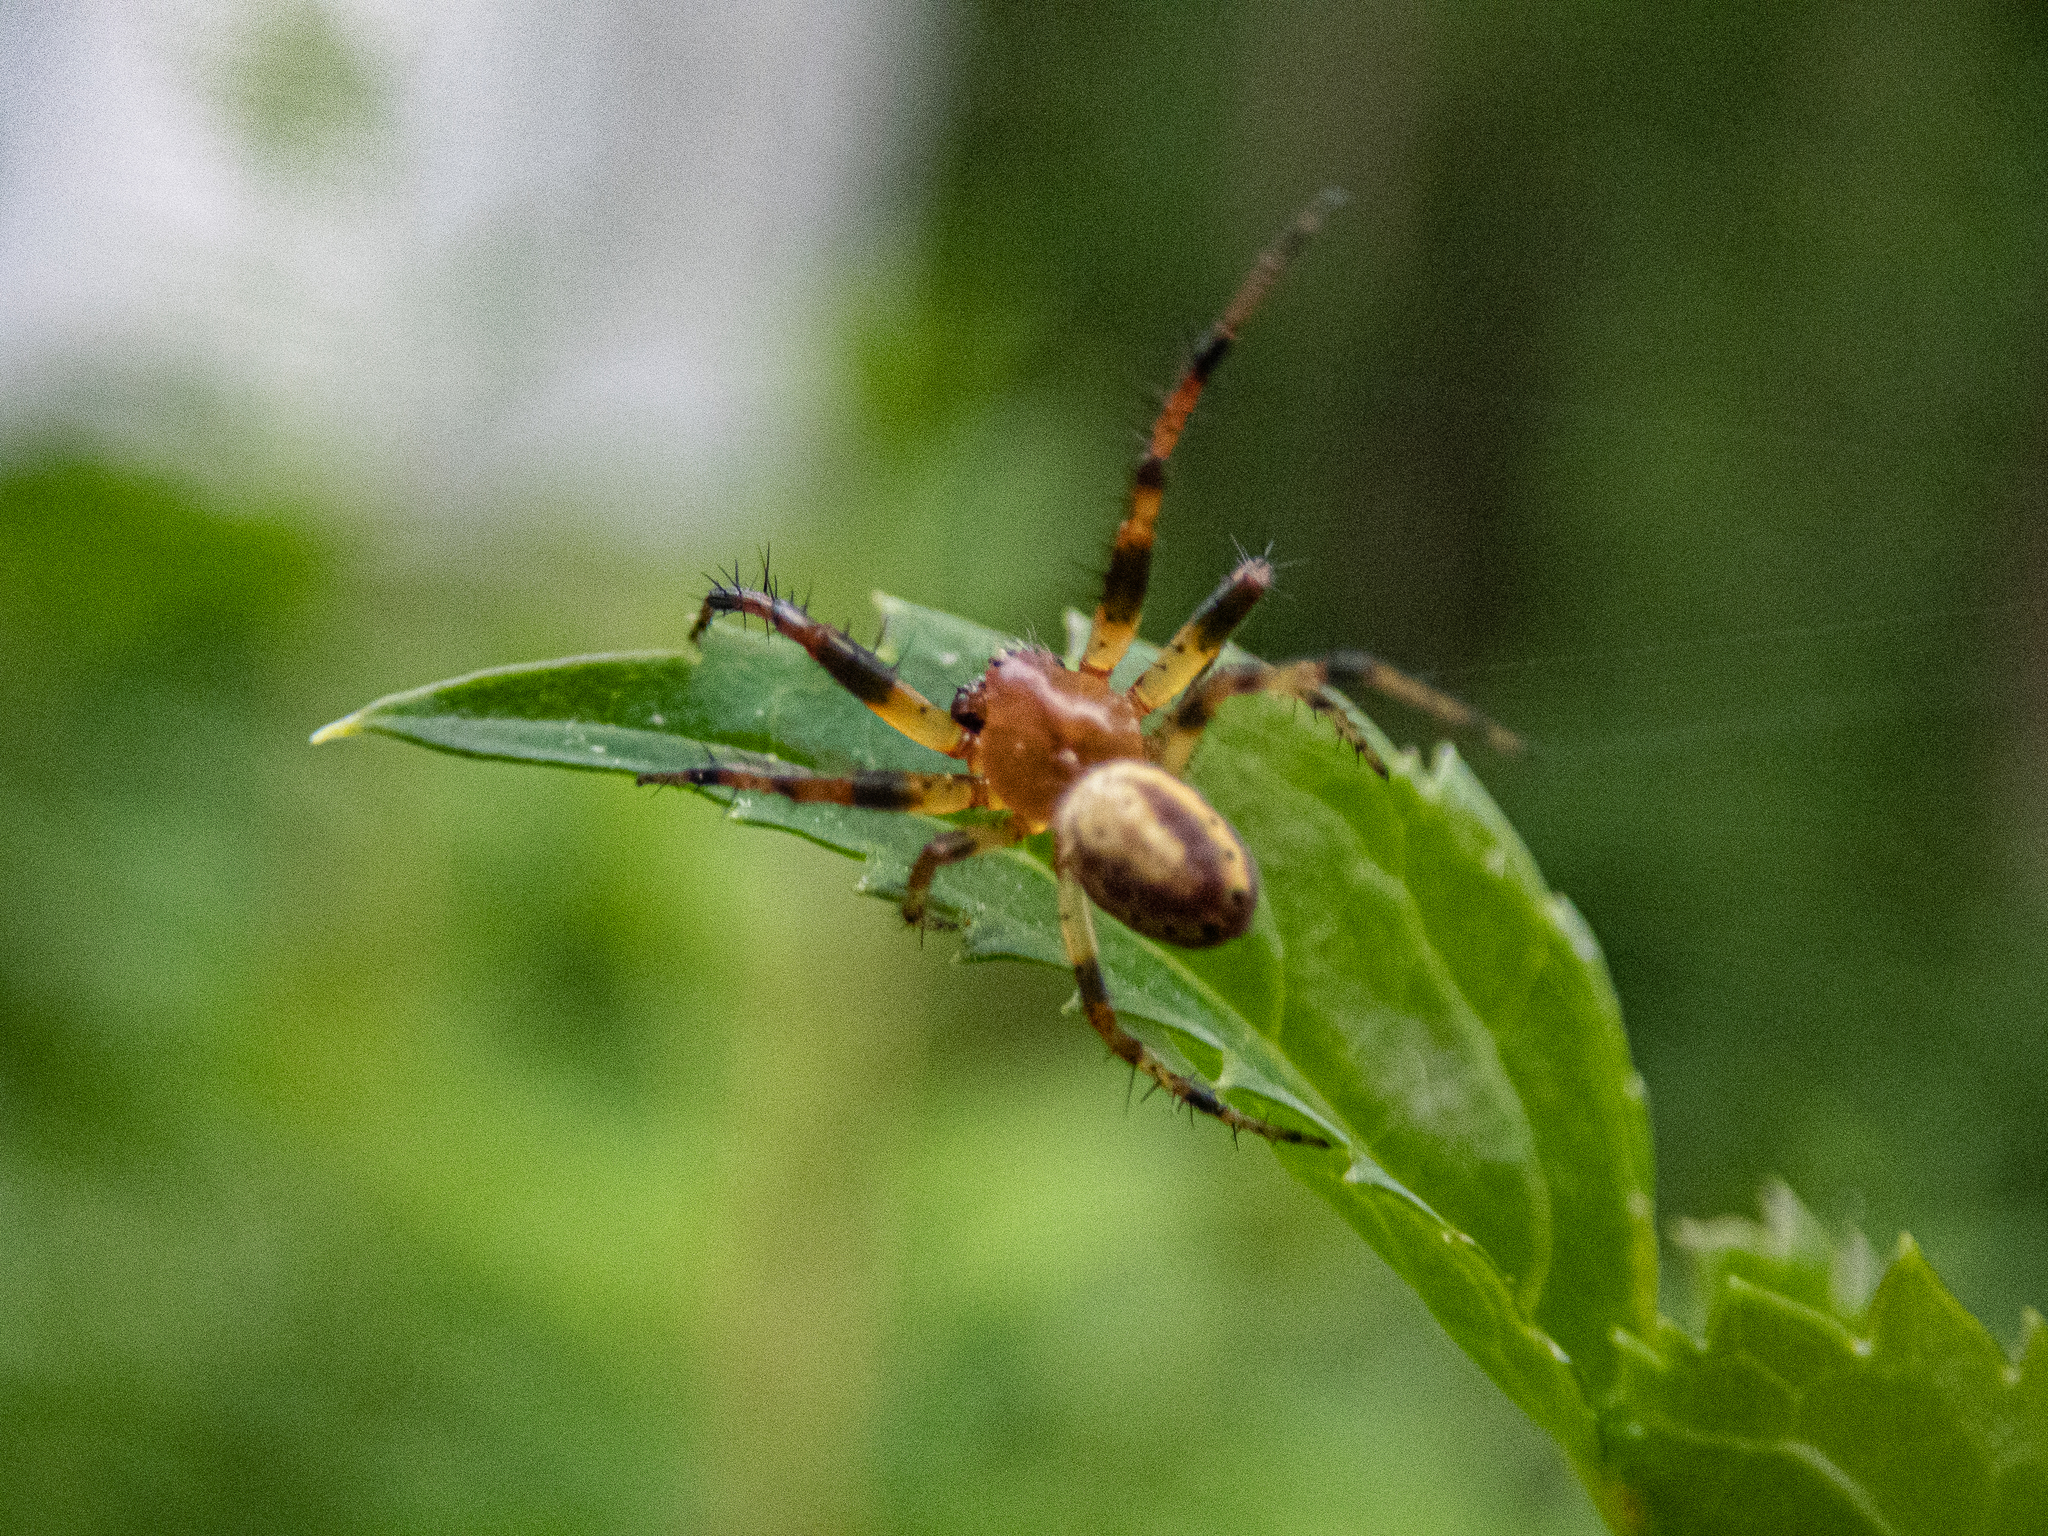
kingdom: Animalia
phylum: Arthropoda
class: Arachnida
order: Araneae
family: Araneidae
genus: Araniella
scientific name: Araniella displicata
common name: Sixspotted orb weaver
